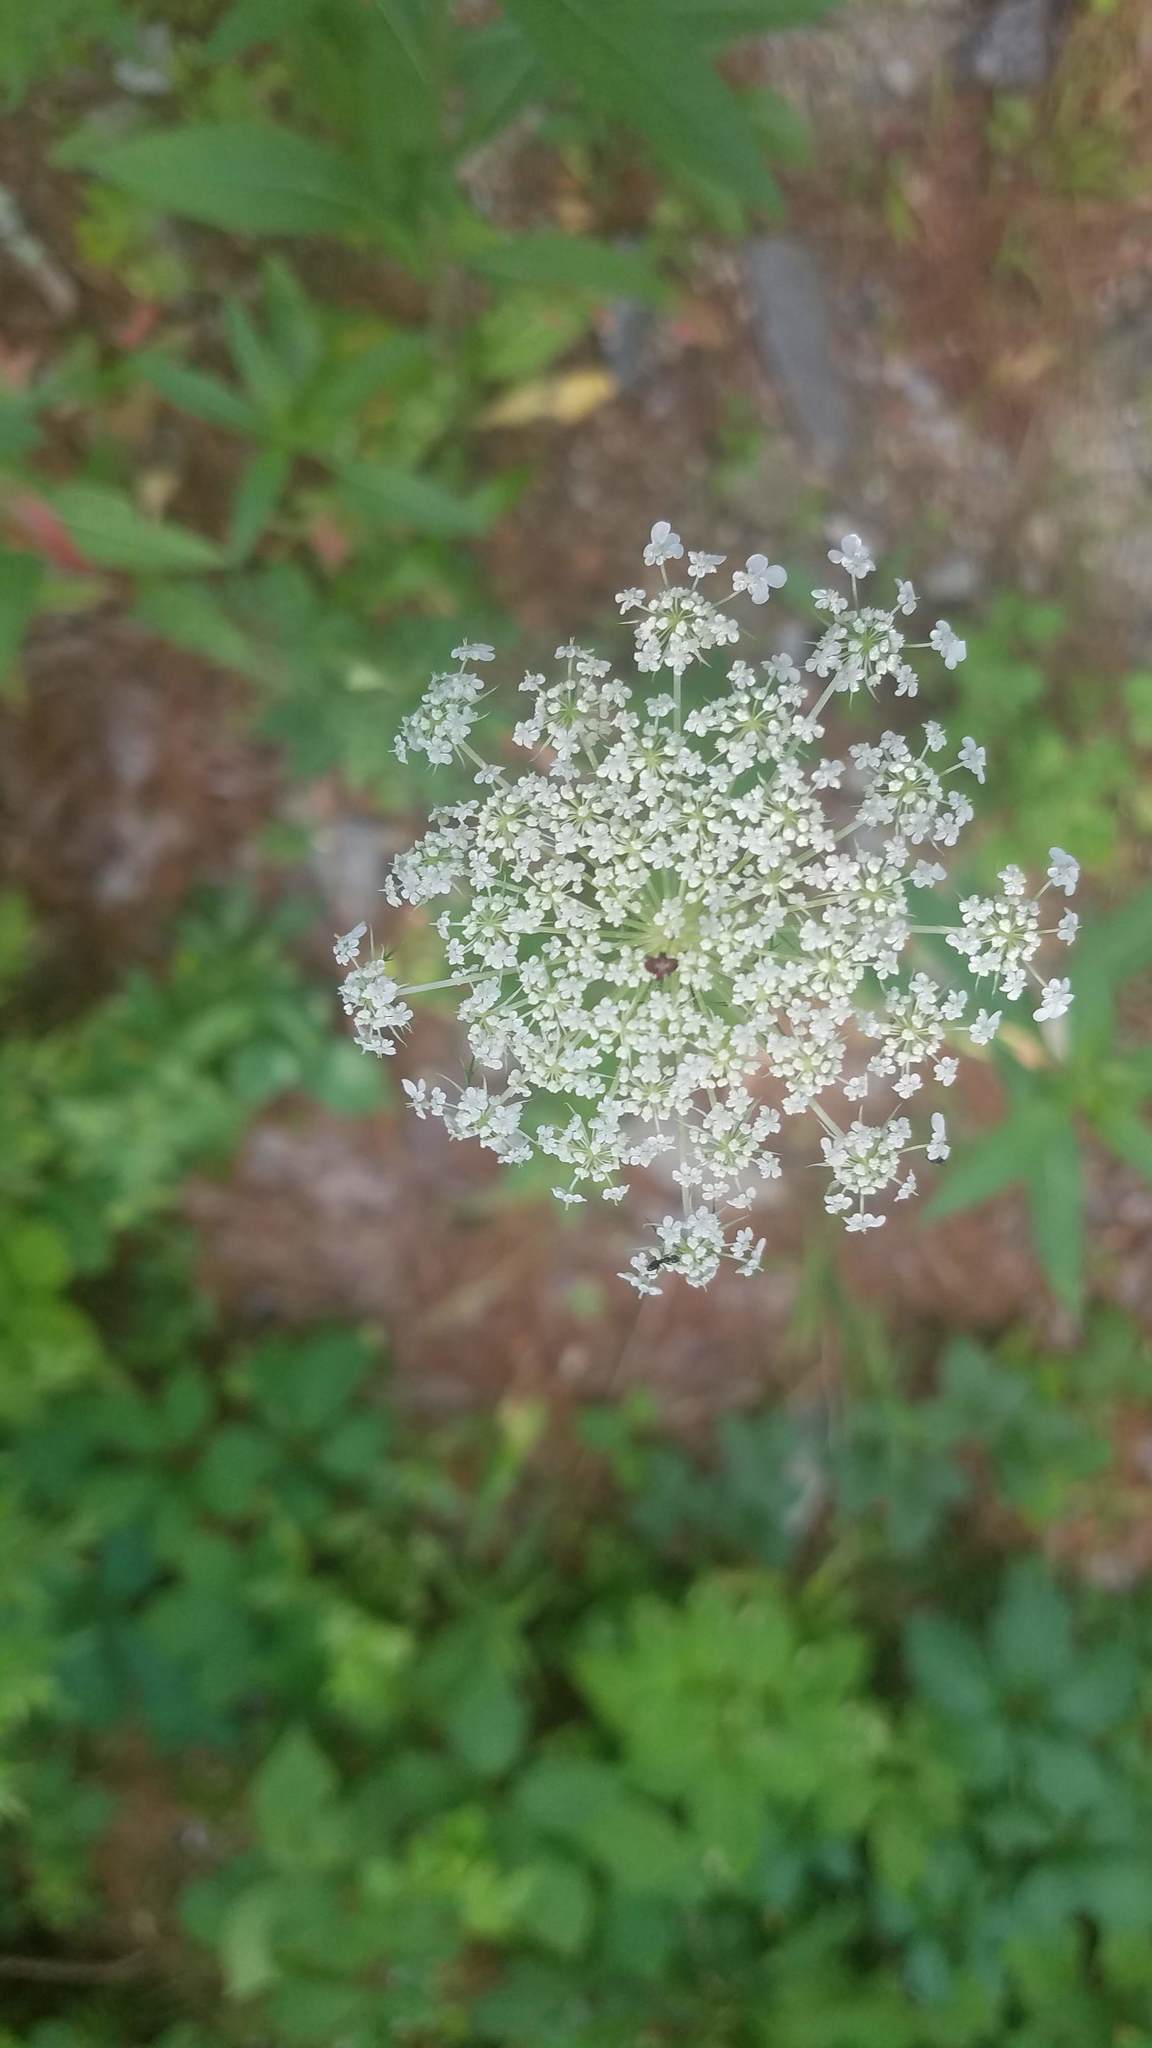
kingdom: Plantae
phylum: Tracheophyta
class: Magnoliopsida
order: Apiales
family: Apiaceae
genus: Daucus
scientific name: Daucus carota
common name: Wild carrot
